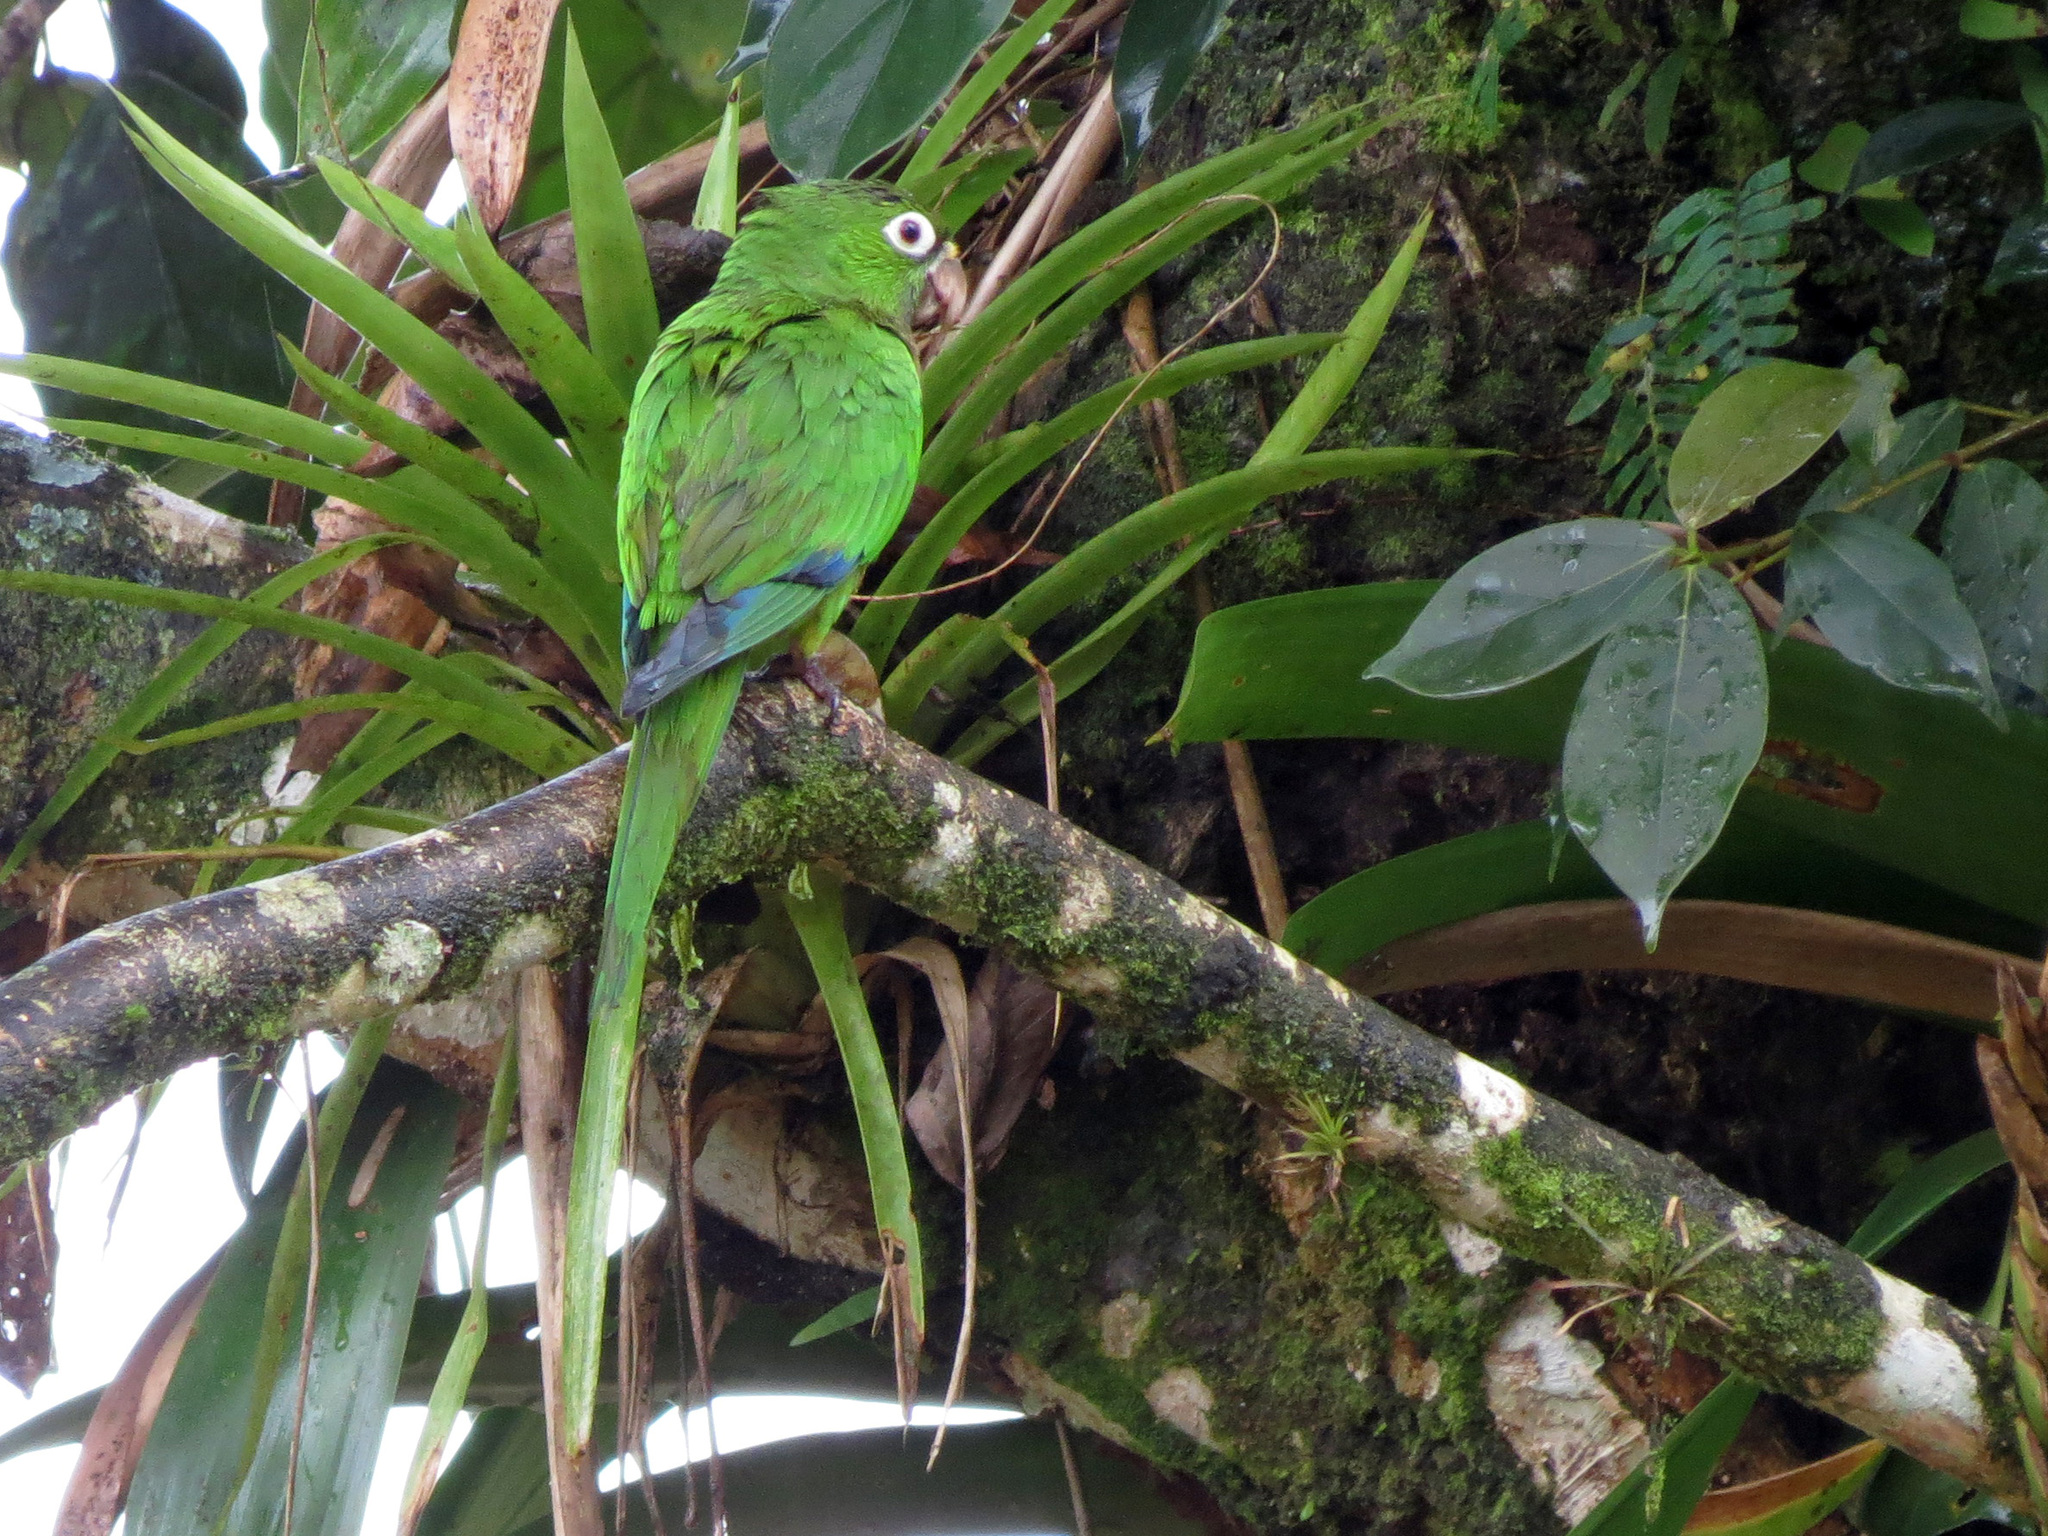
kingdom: Animalia
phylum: Chordata
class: Aves
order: Psittaciformes
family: Psittacidae
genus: Aratinga
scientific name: Aratinga nana
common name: Olive-throated parakeet
